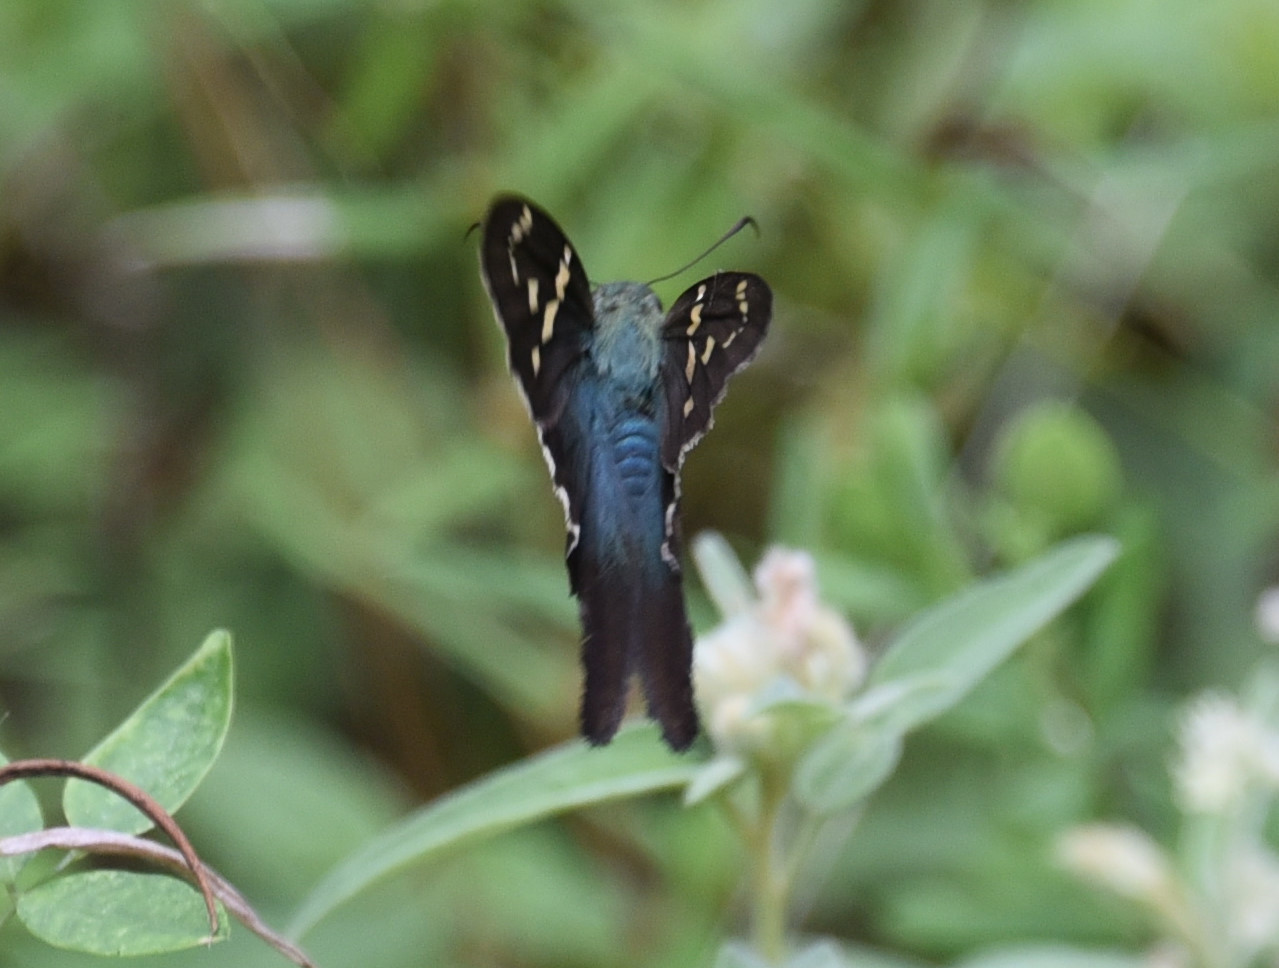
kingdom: Animalia
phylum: Arthropoda
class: Insecta
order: Lepidoptera
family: Hesperiidae
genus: Urbanus
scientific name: Urbanus proteus
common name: Long-tailed skipper
